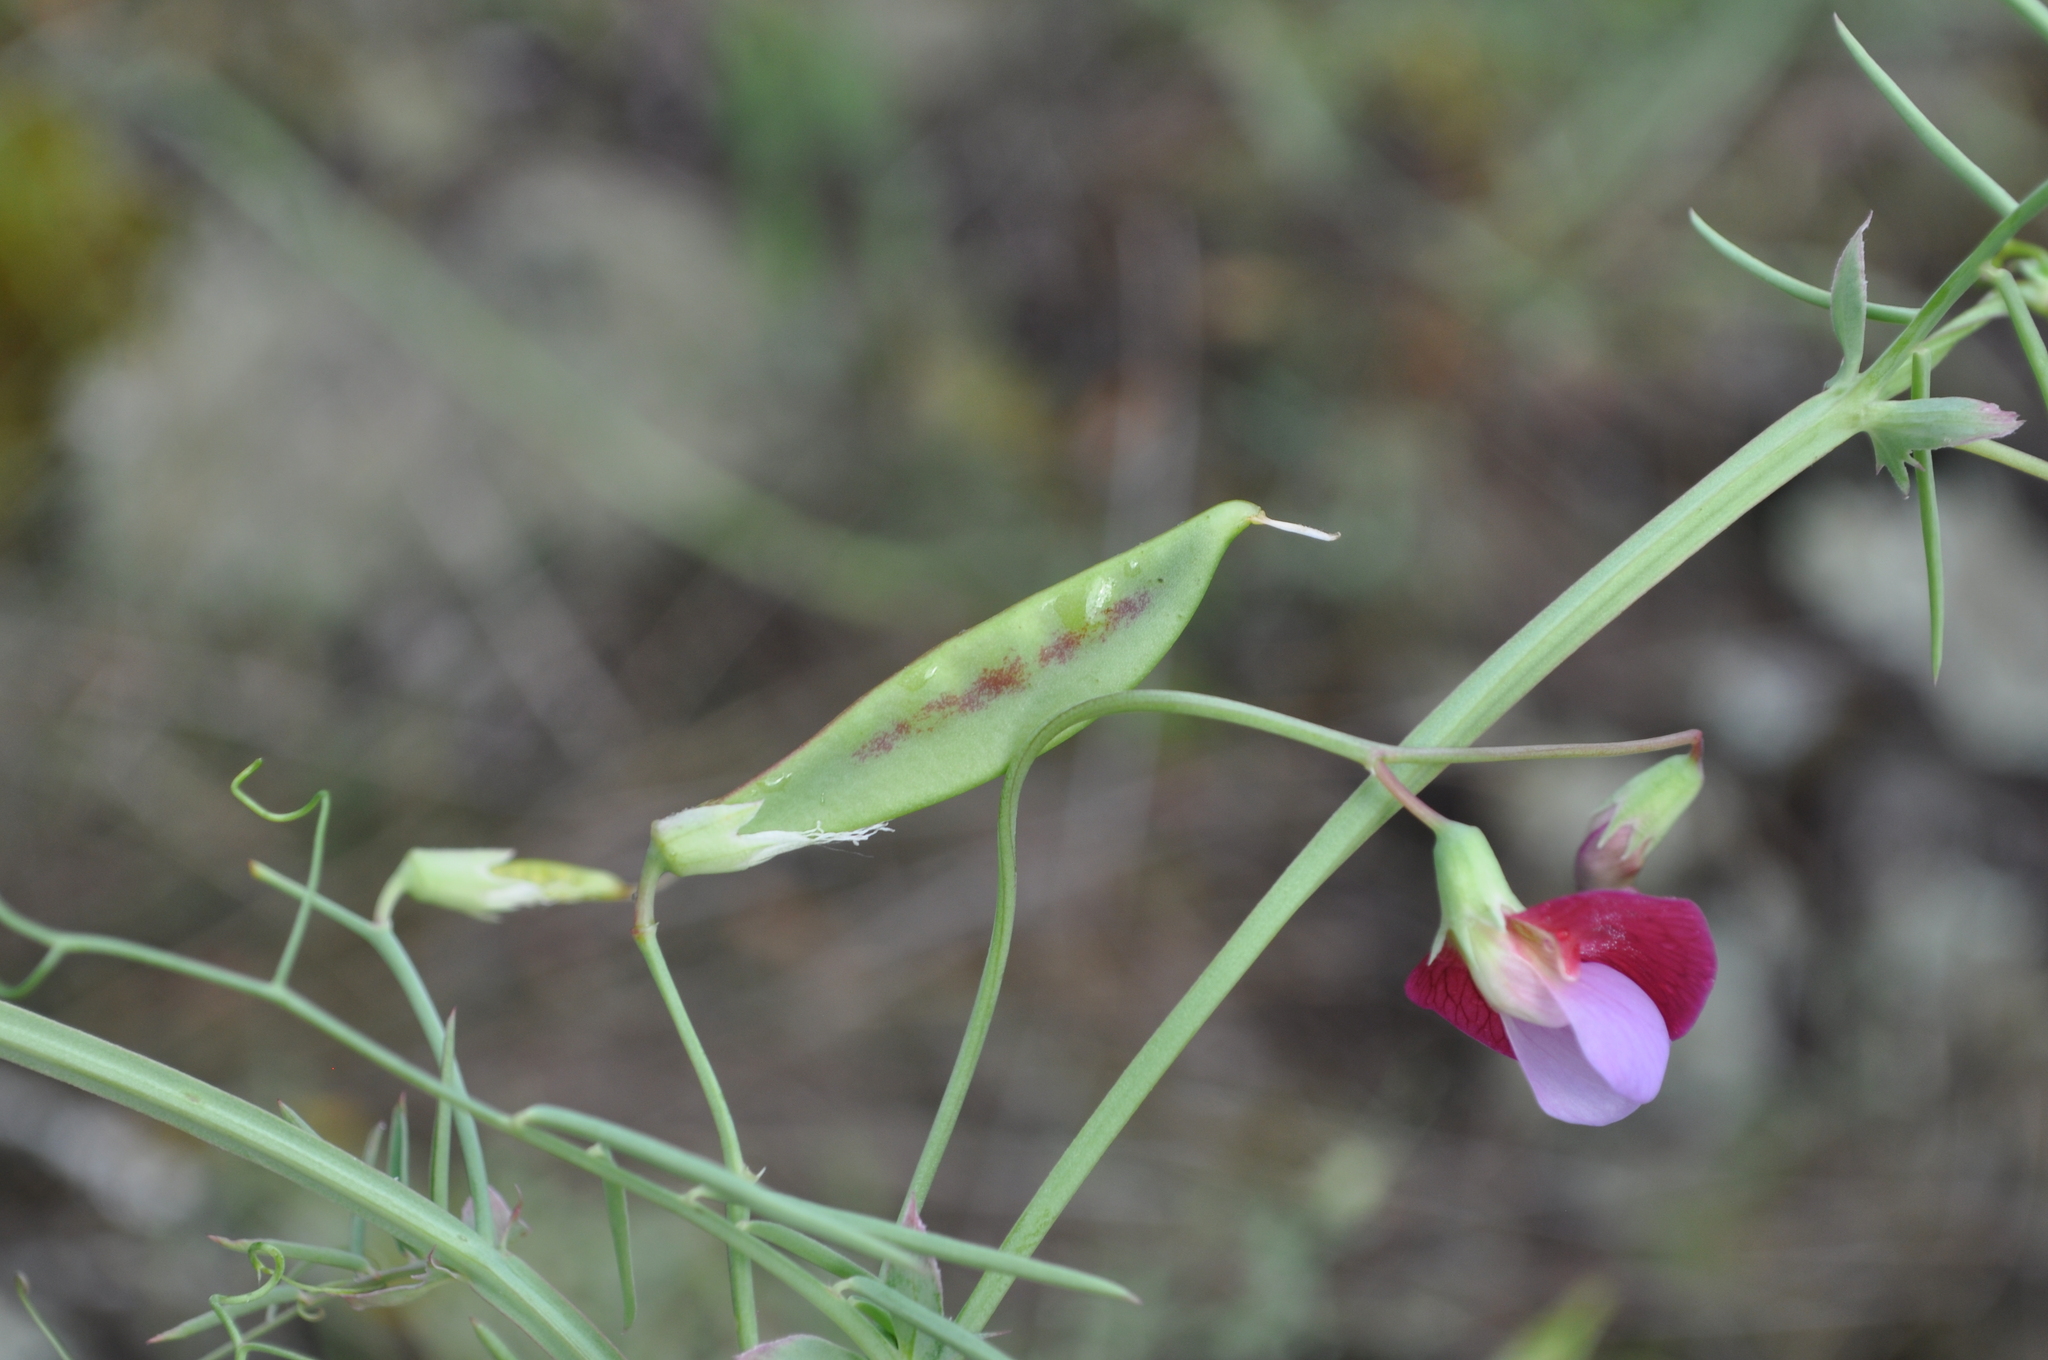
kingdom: Plantae
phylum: Tracheophyta
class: Magnoliopsida
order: Fabales
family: Fabaceae
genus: Lathyrus
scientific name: Lathyrus clymenum
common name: Spanish vetchling
